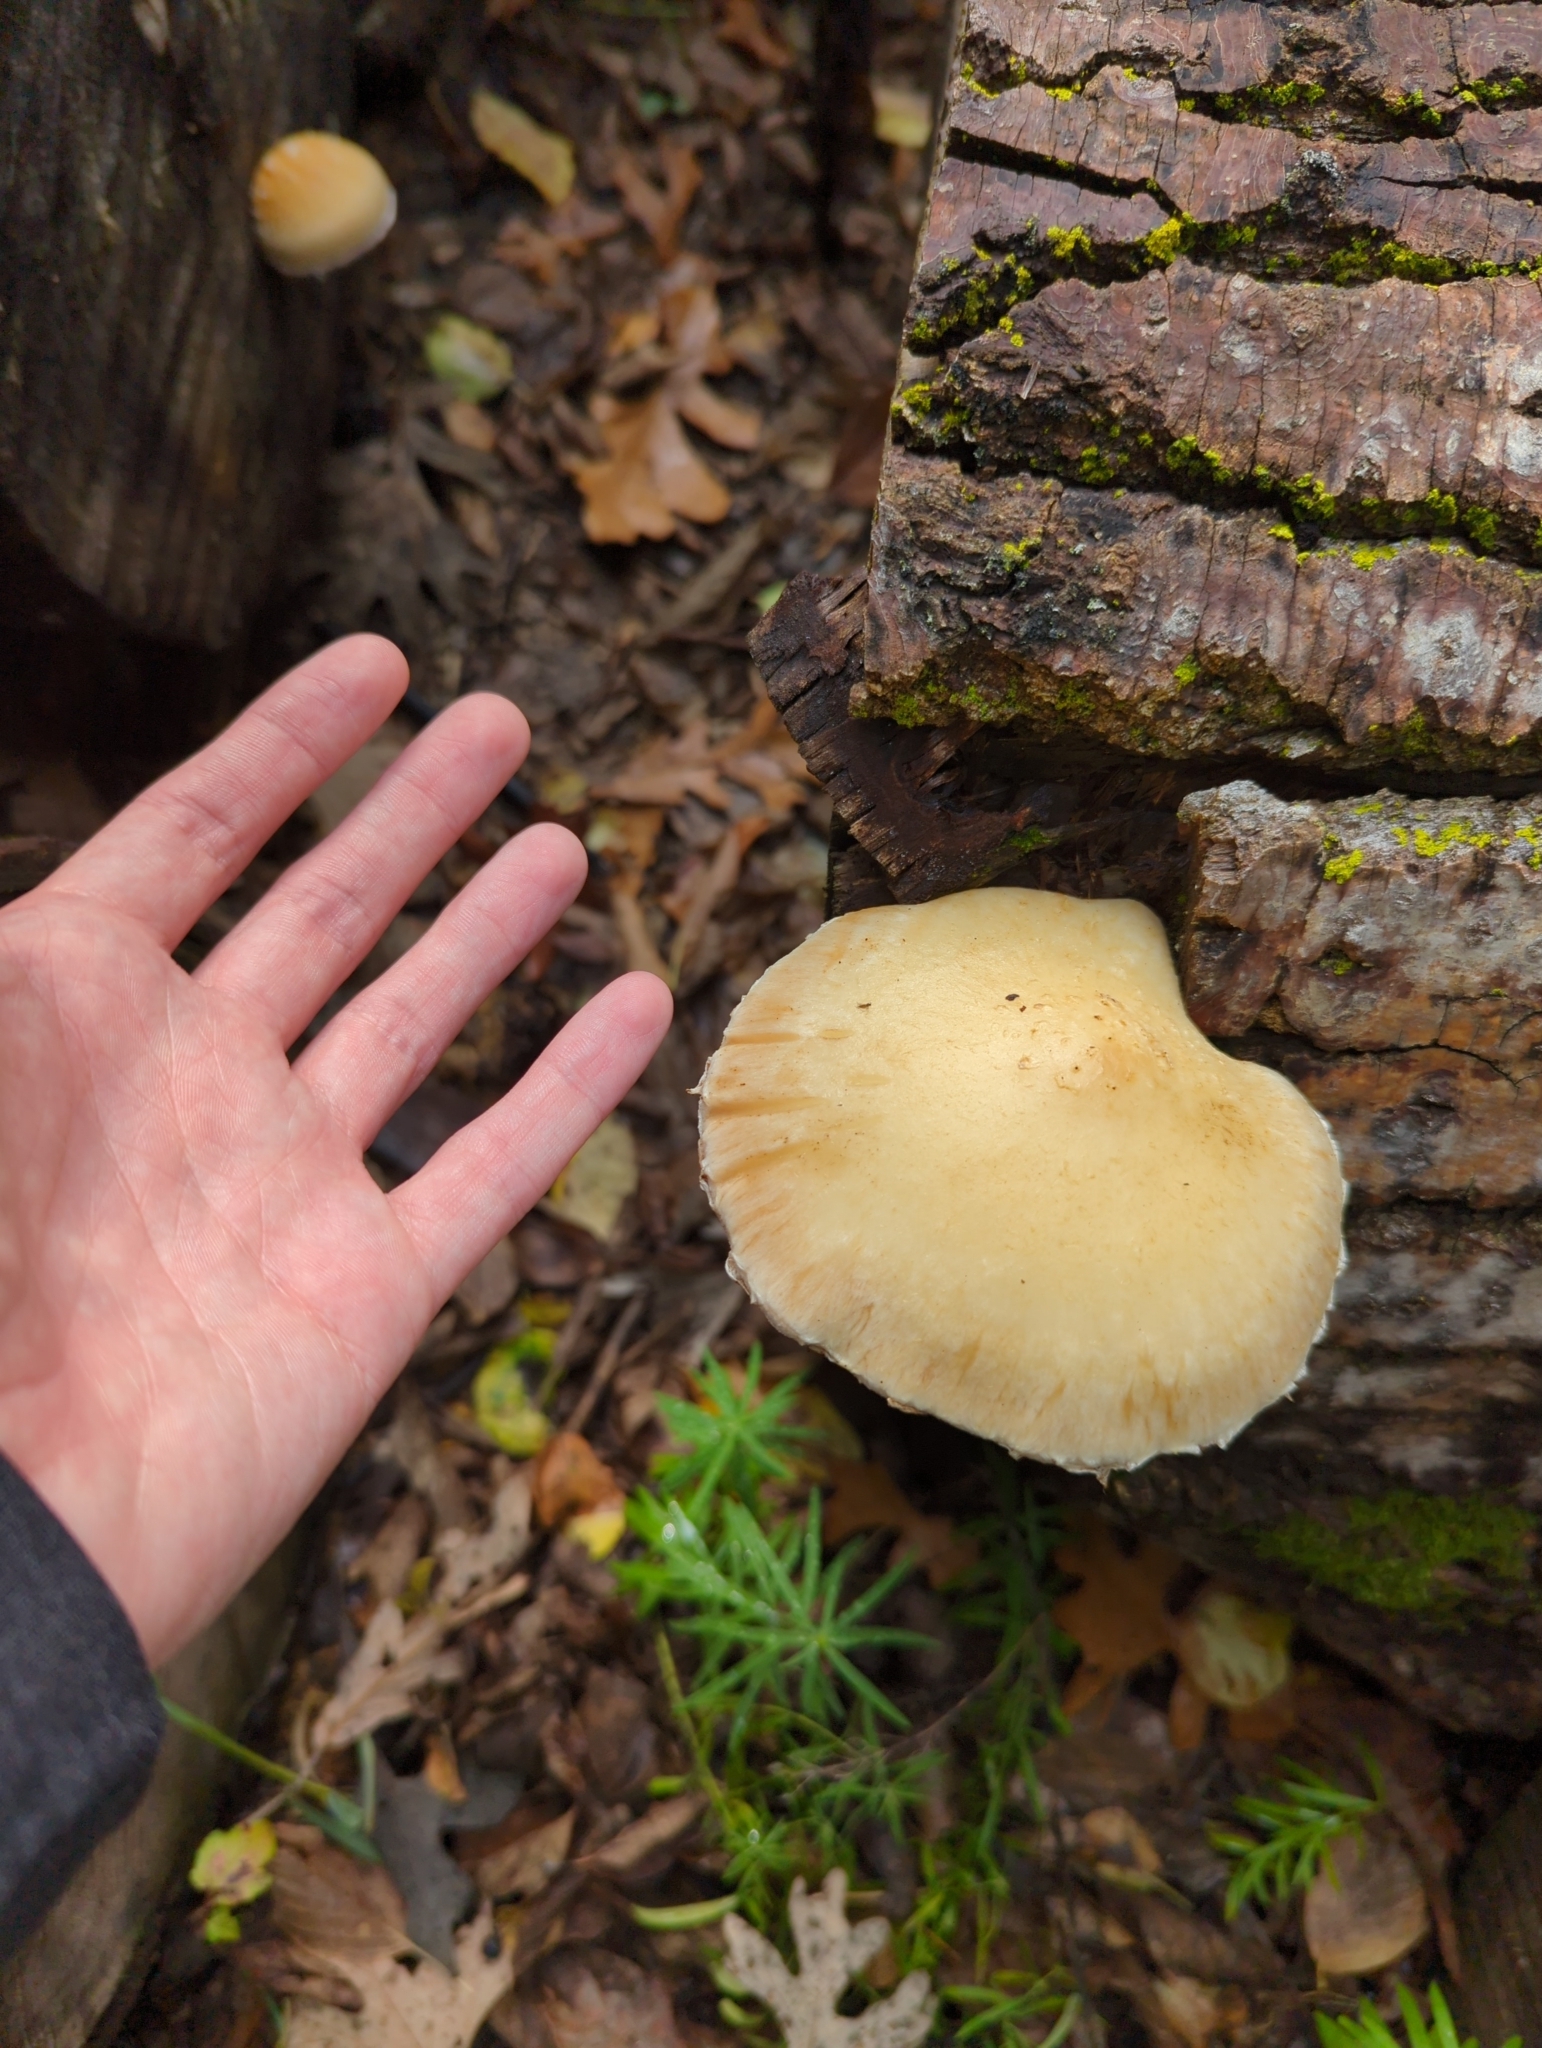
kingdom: Fungi
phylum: Basidiomycota
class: Agaricomycetes
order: Agaricales
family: Strophariaceae
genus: Pholiota
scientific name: Pholiota populnea
